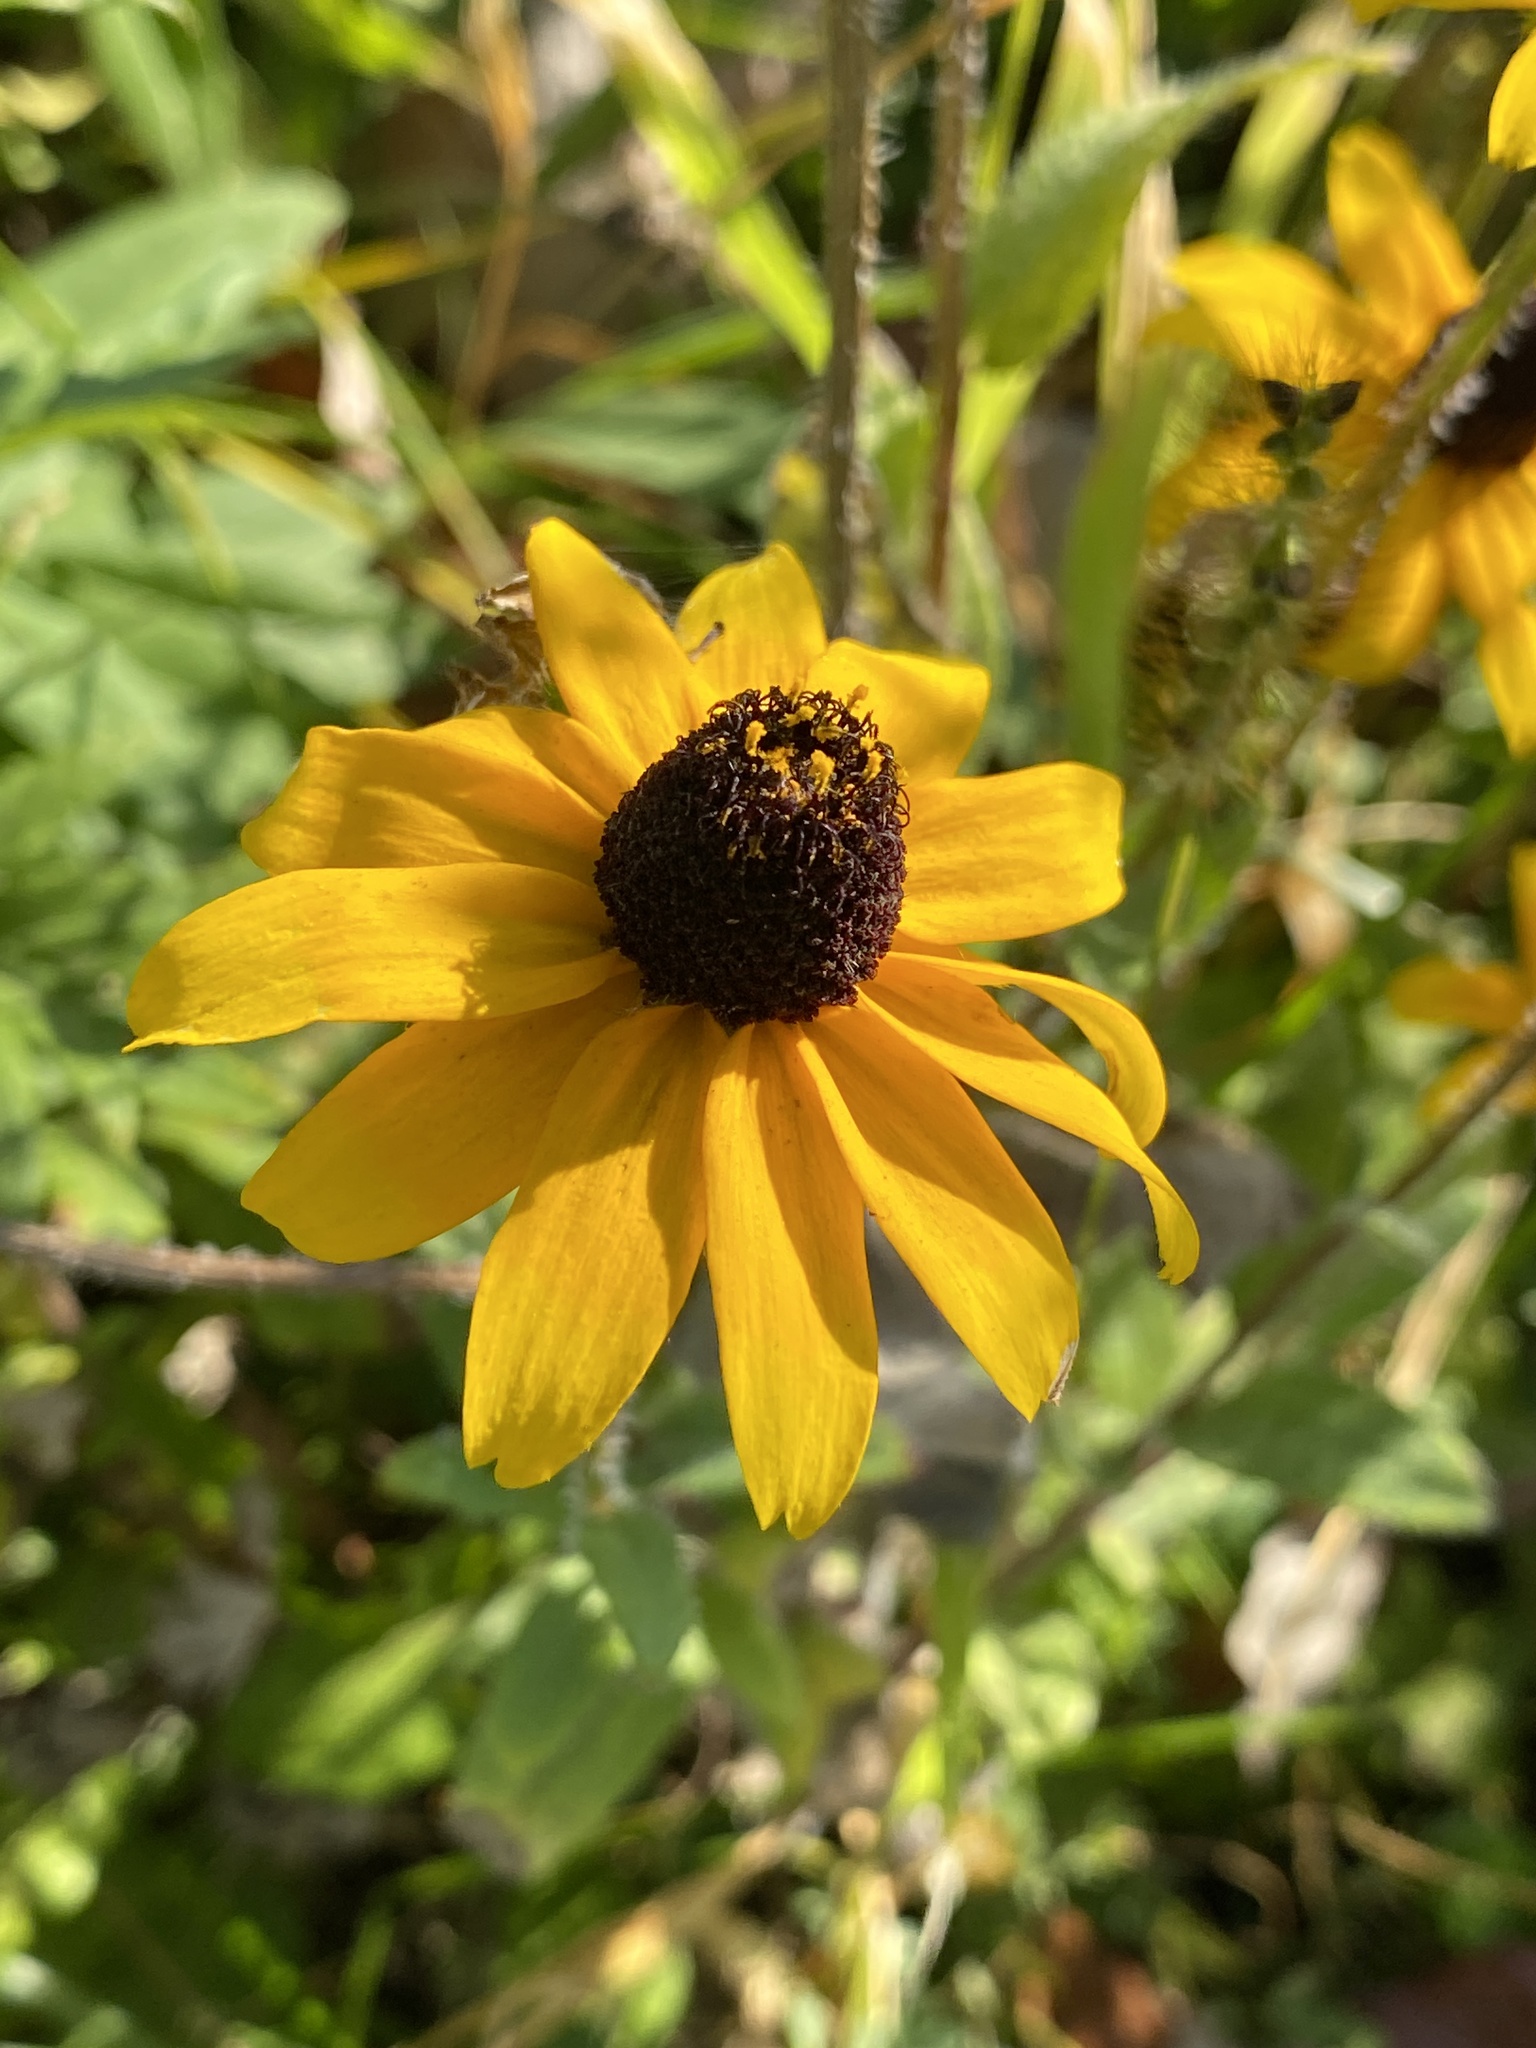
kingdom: Plantae
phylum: Tracheophyta
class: Magnoliopsida
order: Asterales
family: Asteraceae
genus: Rudbeckia
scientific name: Rudbeckia hirta
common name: Black-eyed-susan
